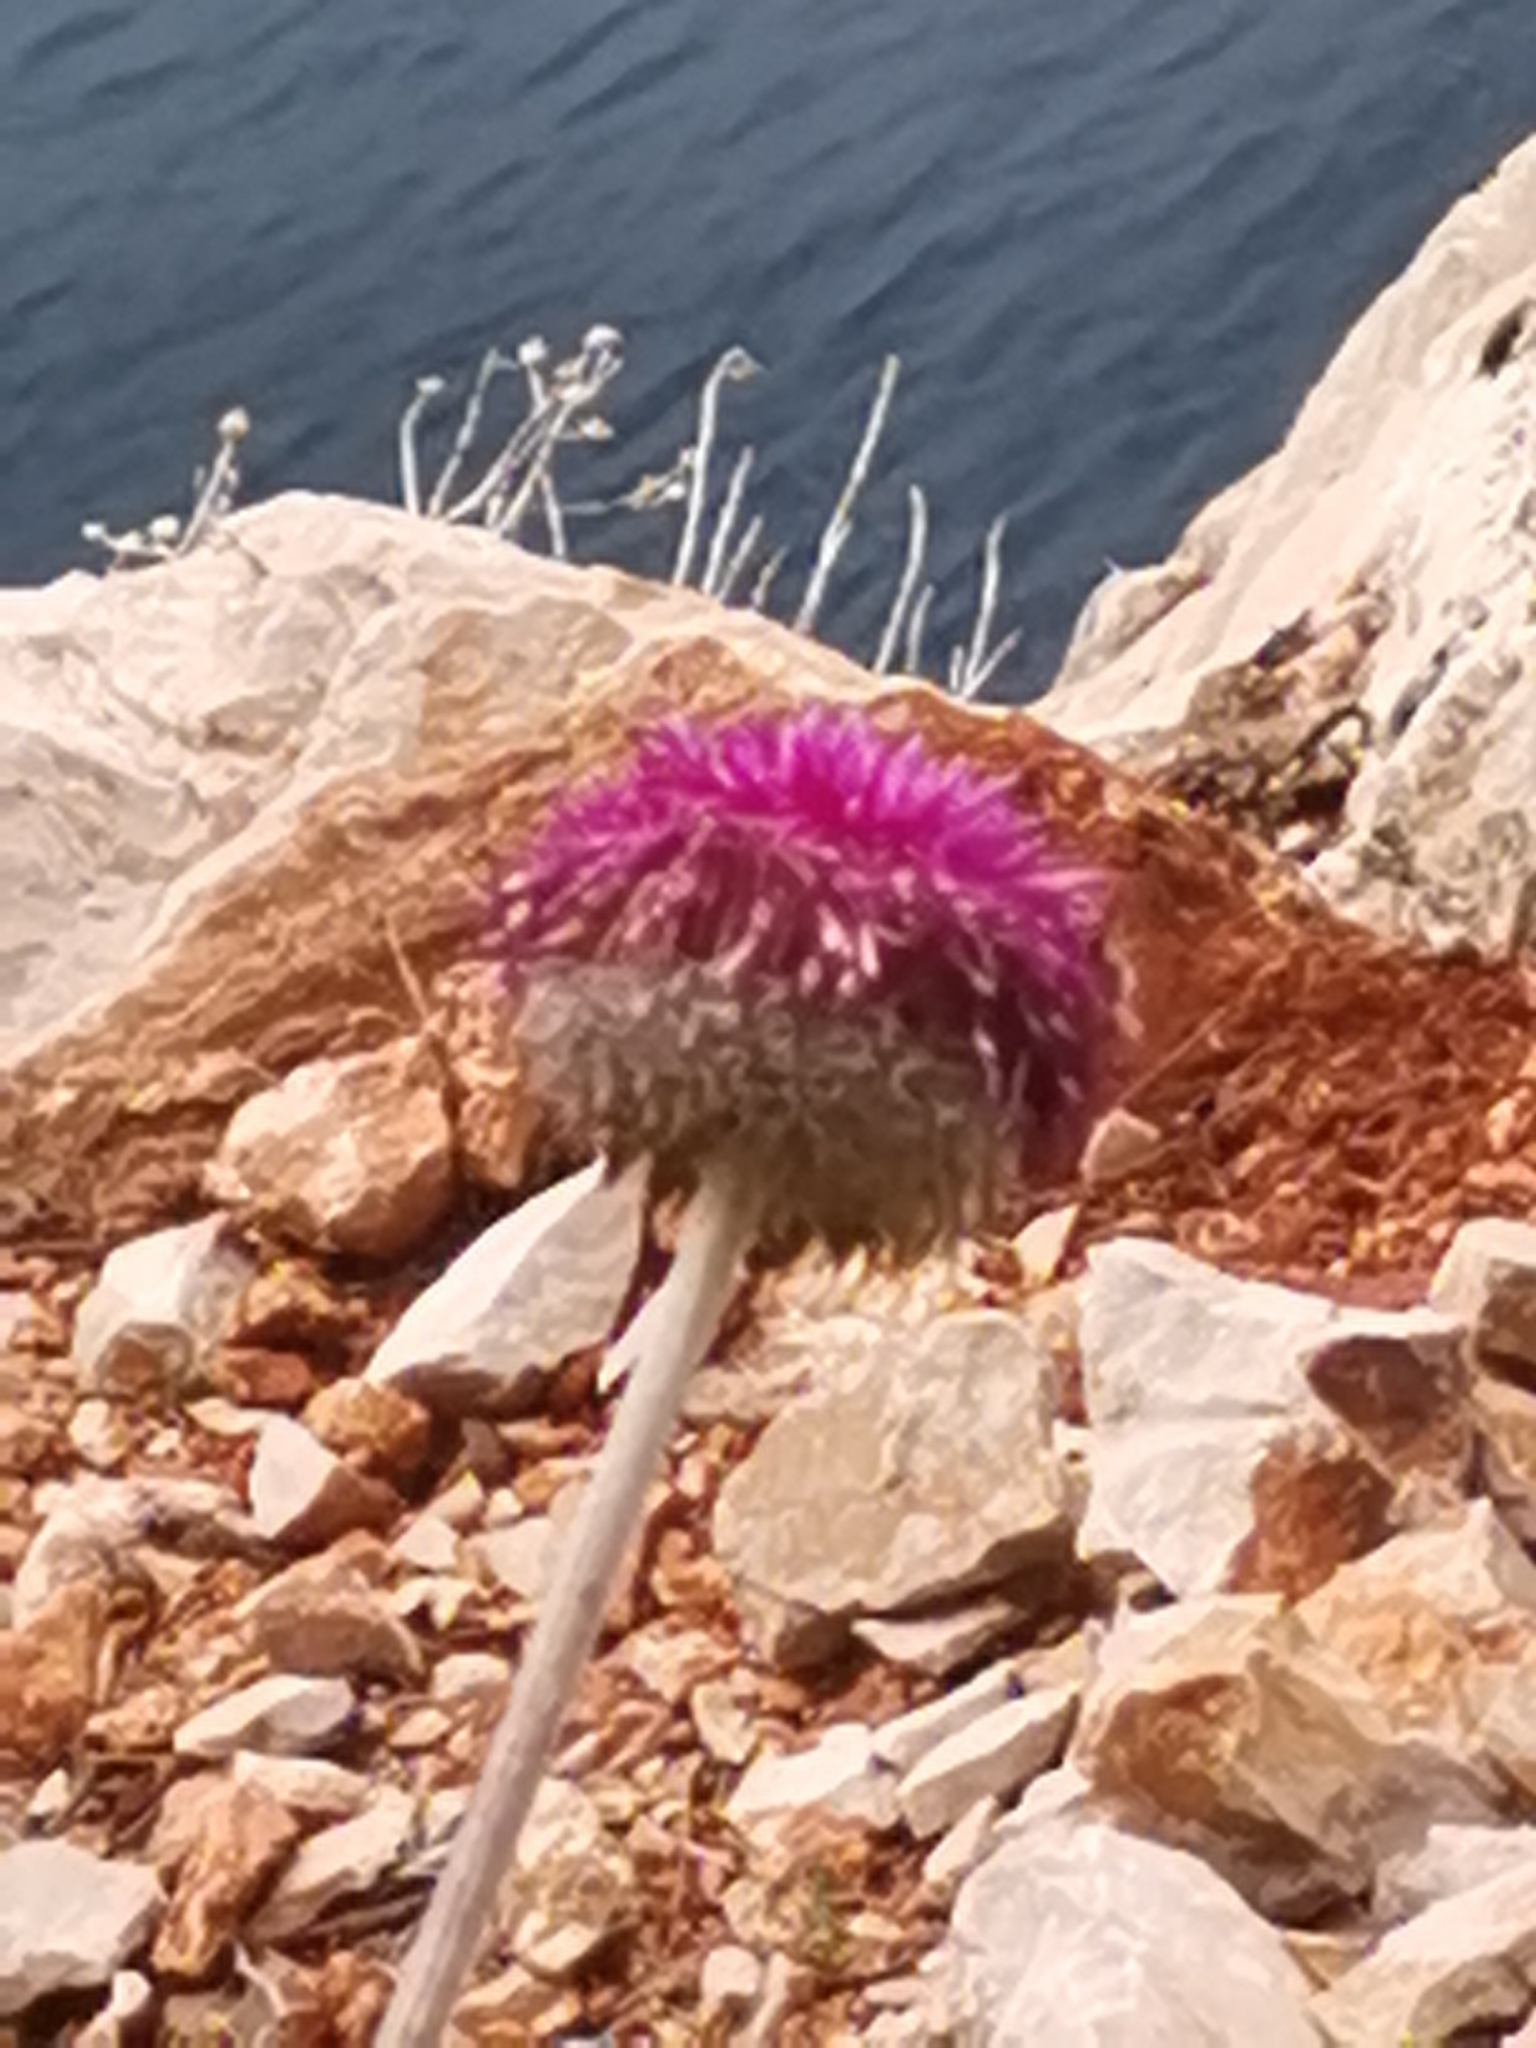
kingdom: Plantae
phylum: Tracheophyta
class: Magnoliopsida
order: Asterales
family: Asteraceae
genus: Jurinea
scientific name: Jurinea mollis
